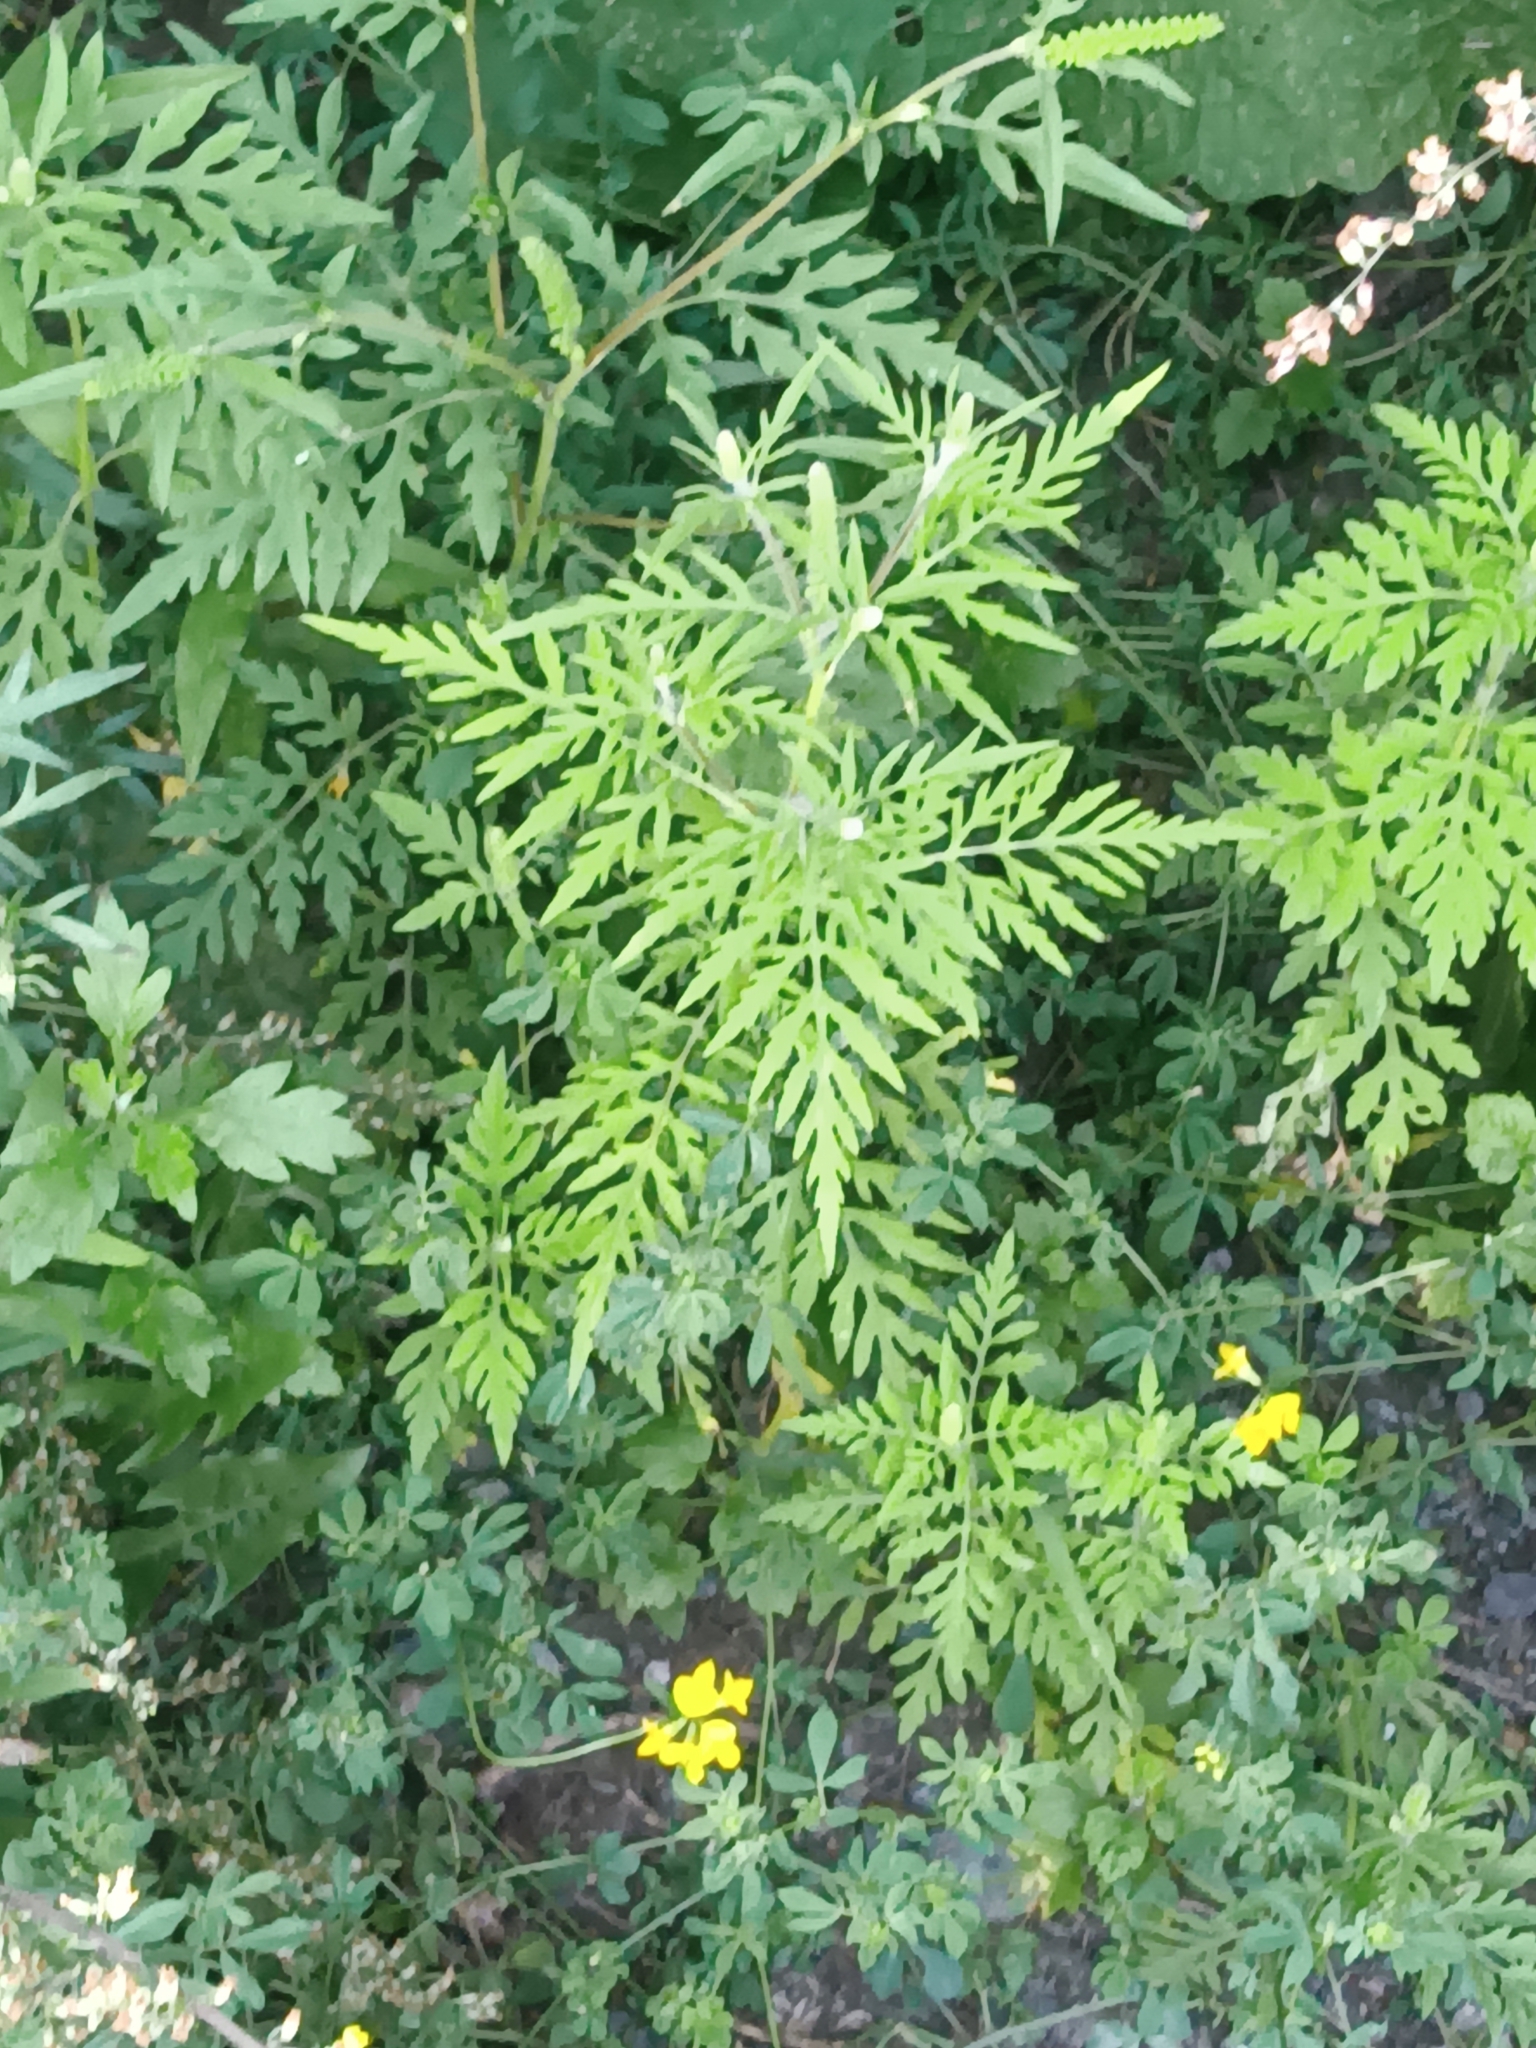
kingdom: Plantae
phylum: Tracheophyta
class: Magnoliopsida
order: Asterales
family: Asteraceae
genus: Ambrosia
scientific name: Ambrosia artemisiifolia
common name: Annual ragweed
